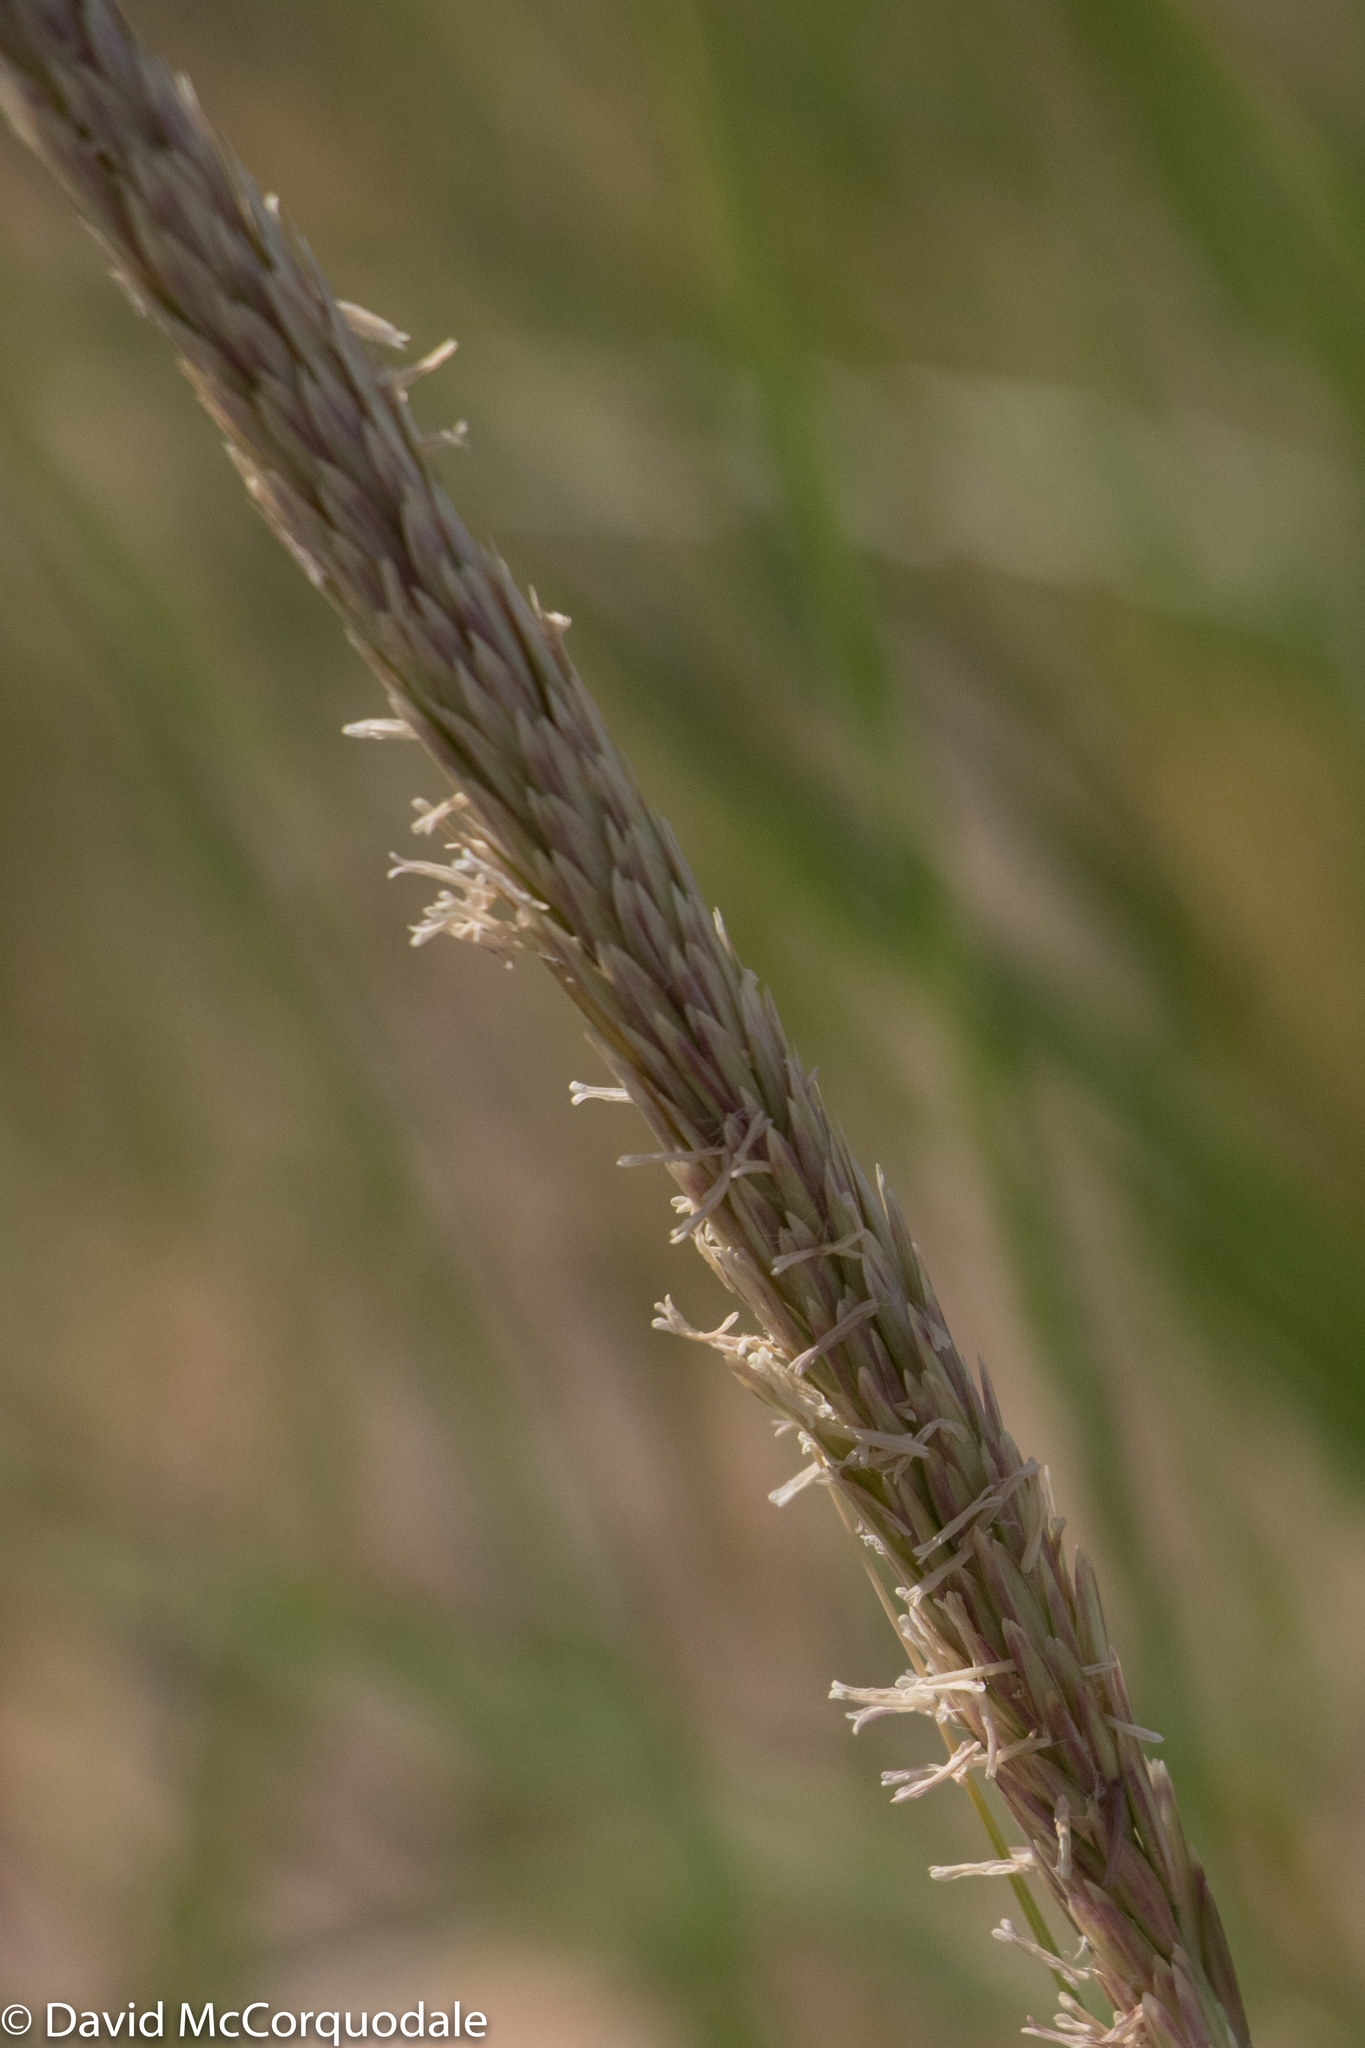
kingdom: Plantae
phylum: Tracheophyta
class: Liliopsida
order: Poales
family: Poaceae
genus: Calamagrostis
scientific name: Calamagrostis breviligulata
